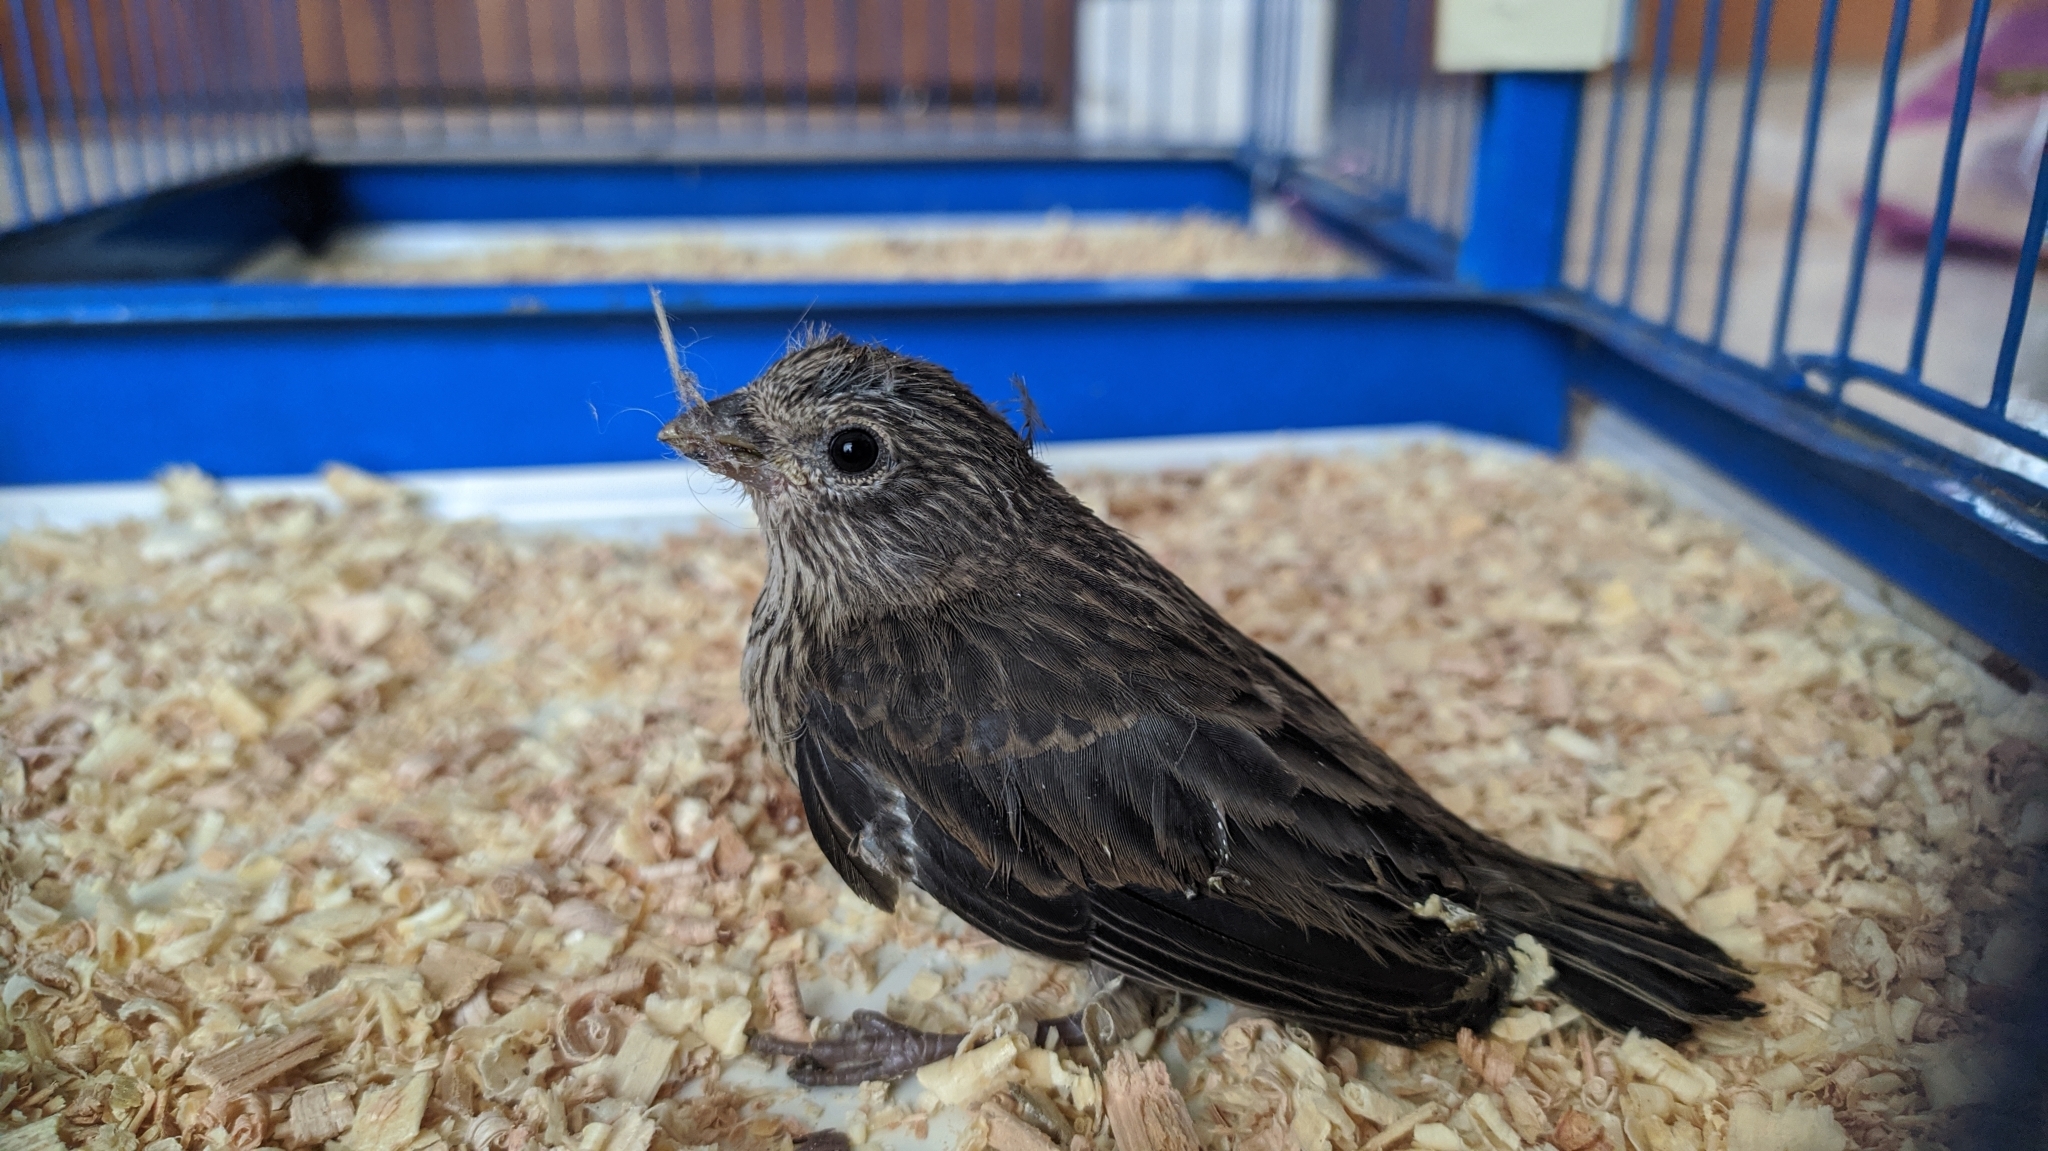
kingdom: Animalia
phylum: Chordata
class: Aves
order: Passeriformes
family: Fringillidae
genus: Haemorhous
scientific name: Haemorhous mexicanus
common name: House finch
